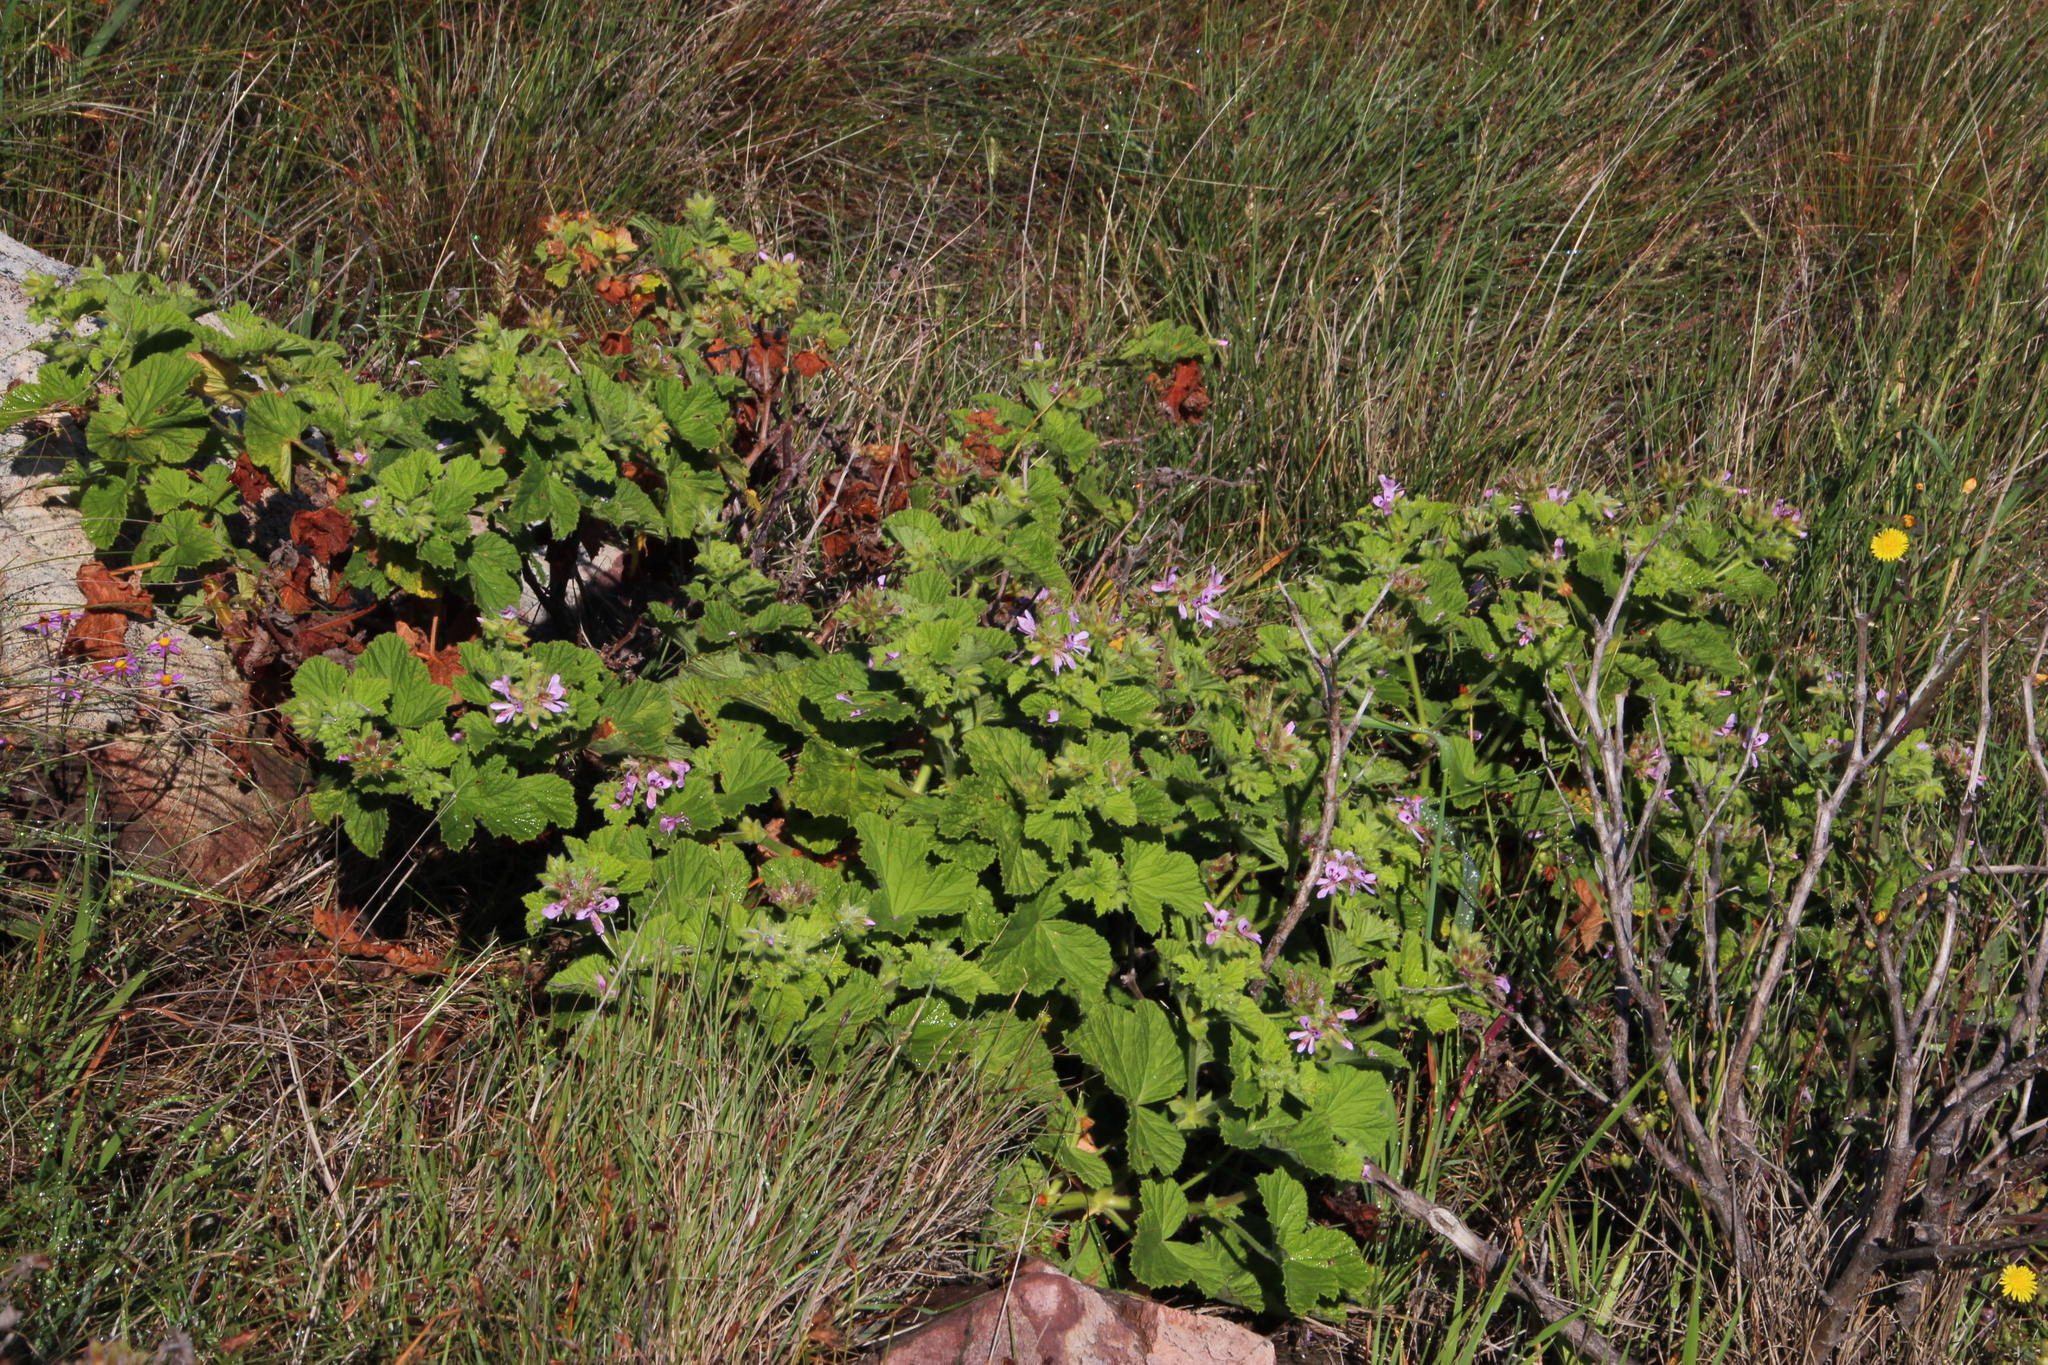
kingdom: Plantae
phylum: Tracheophyta
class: Magnoliopsida
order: Geraniales
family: Geraniaceae
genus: Pelargonium
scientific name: Pelargonium vitifolium
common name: Grapeleaf geranium
